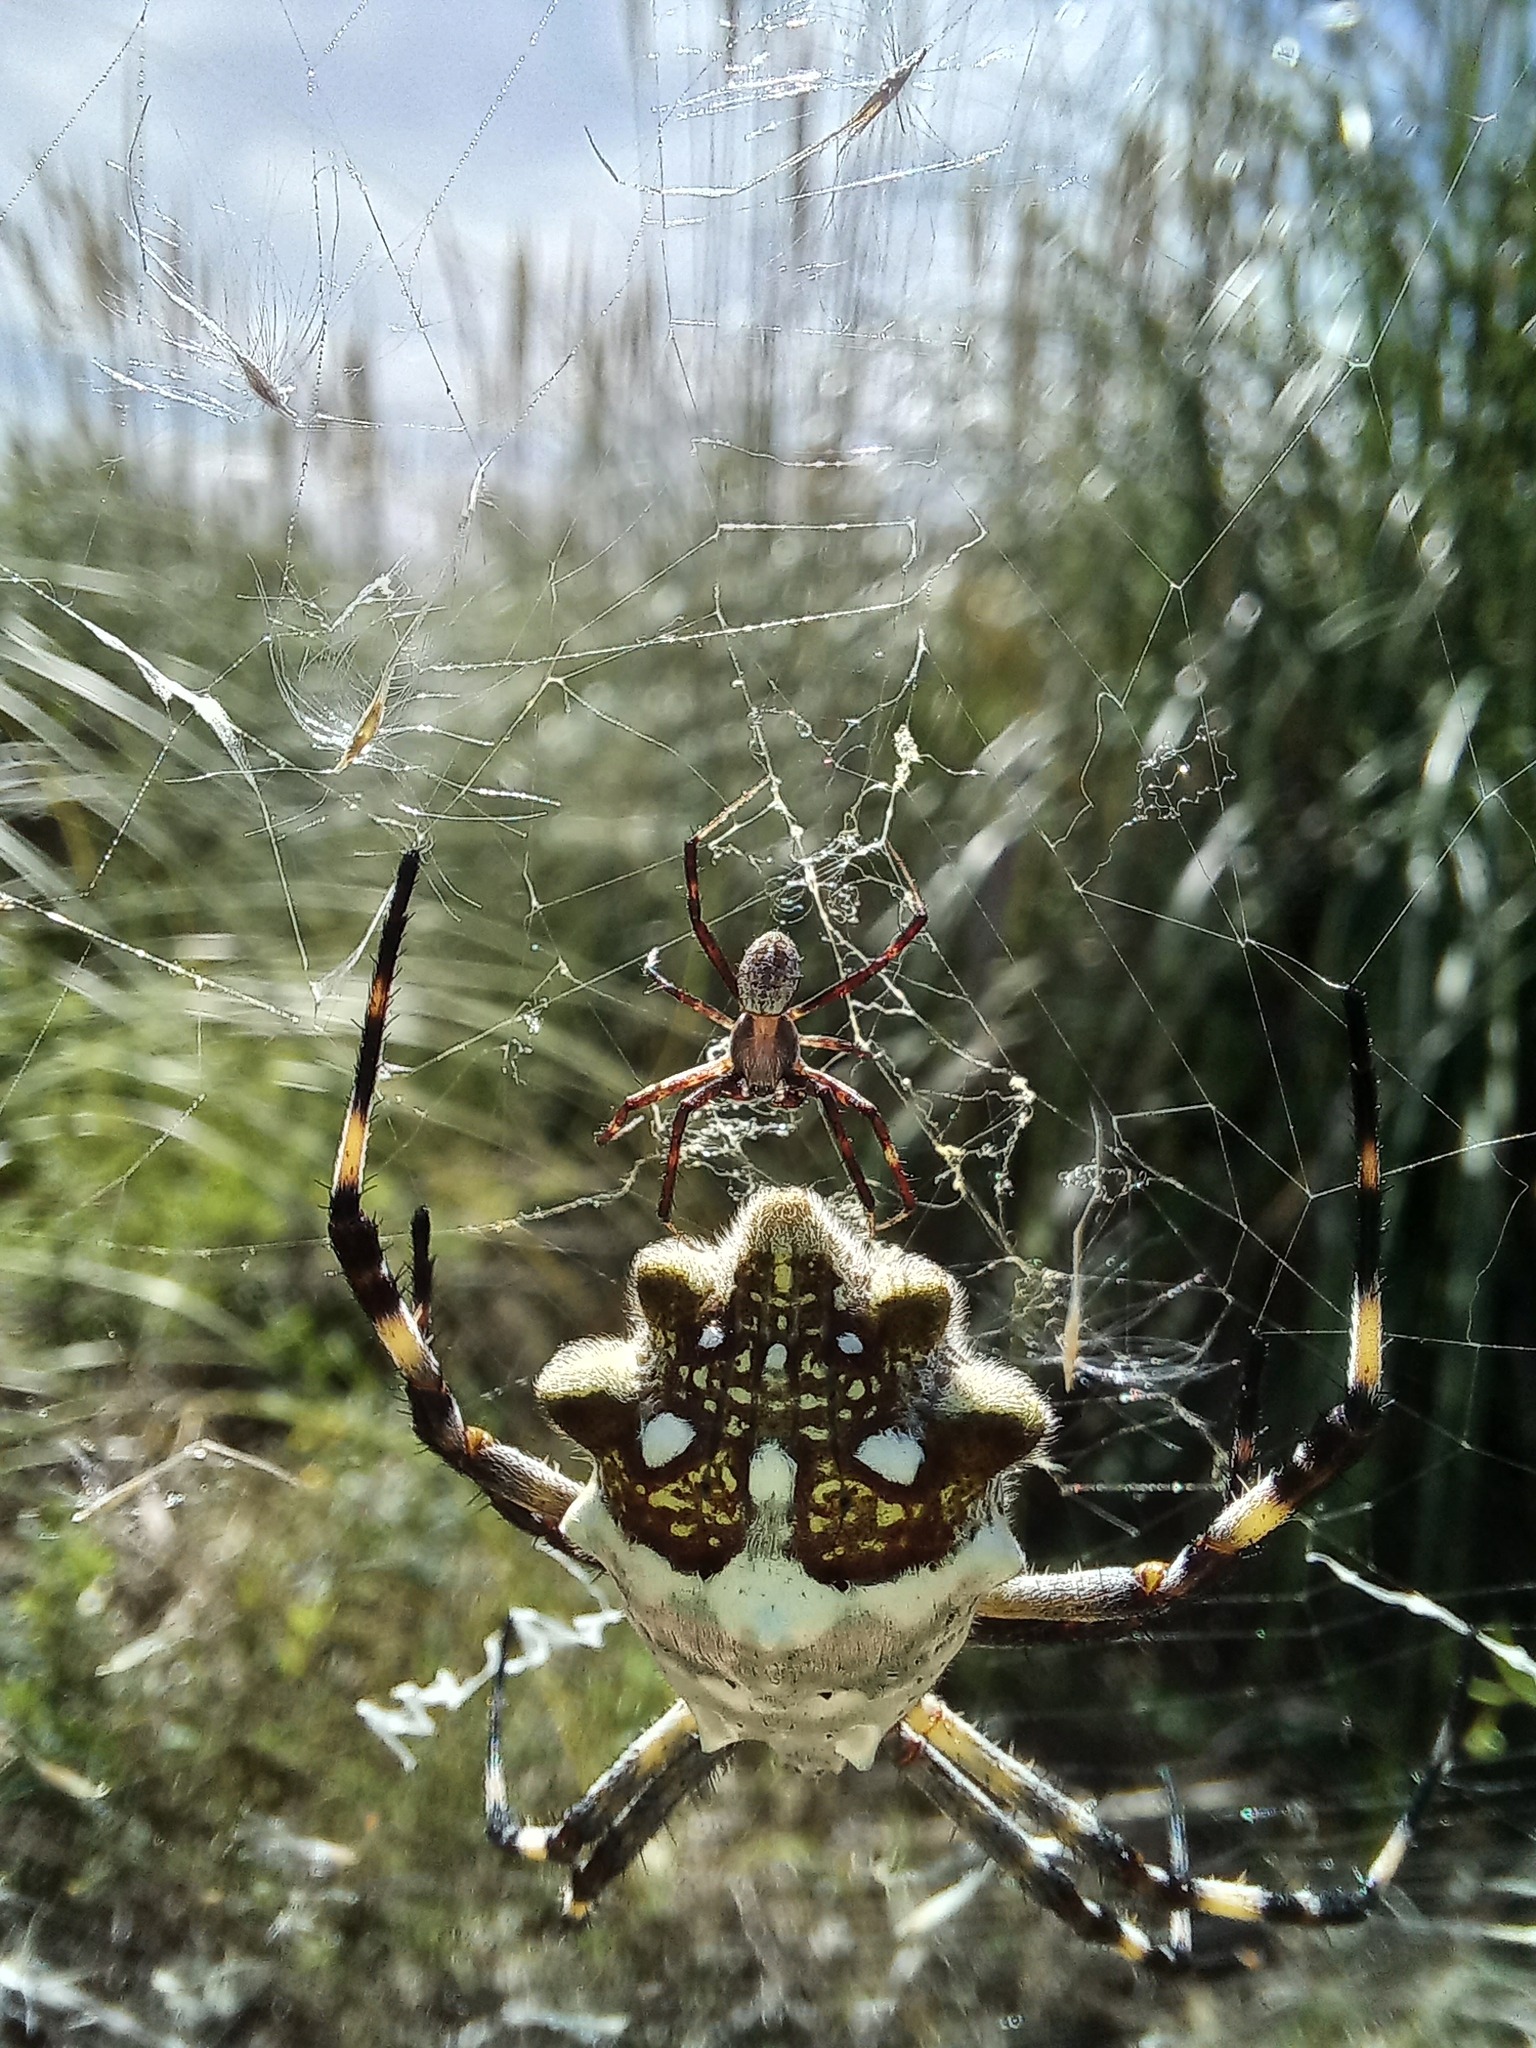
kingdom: Animalia
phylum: Arthropoda
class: Arachnida
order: Araneae
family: Araneidae
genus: Argiope
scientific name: Argiope argentata
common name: Orb weavers
